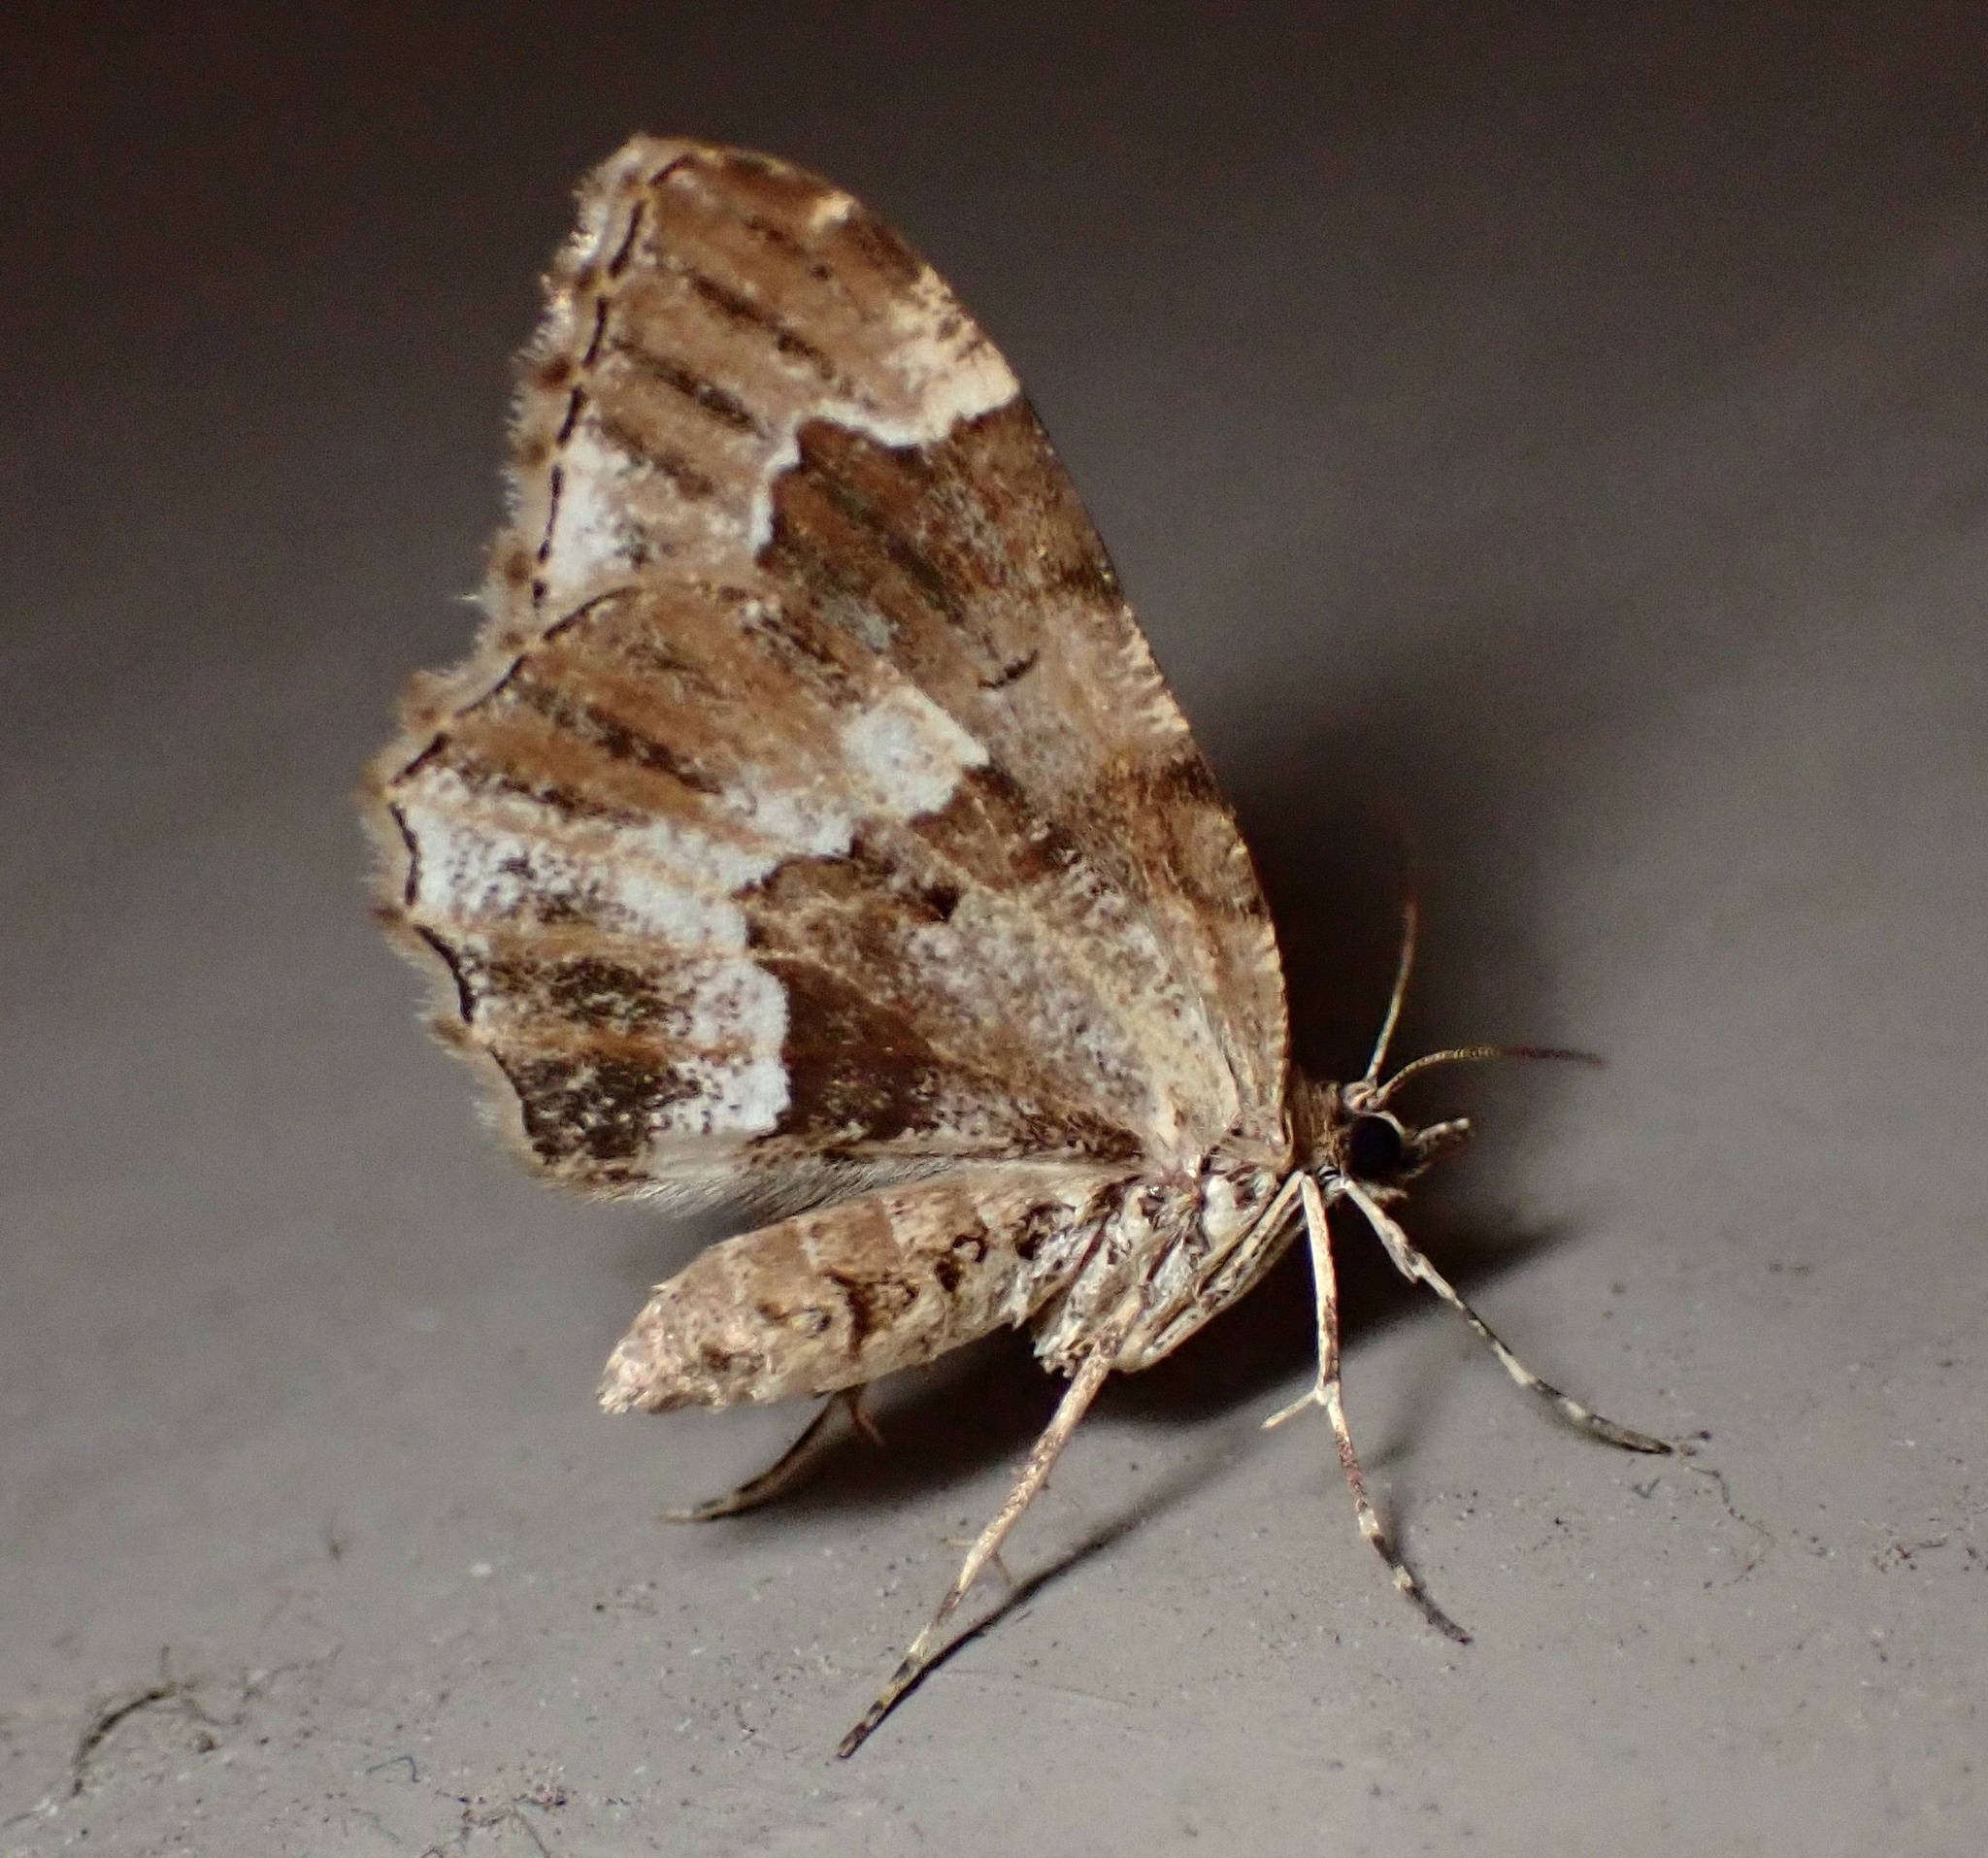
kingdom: Animalia
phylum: Arthropoda
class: Insecta
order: Lepidoptera
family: Geometridae
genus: Ceratodalia
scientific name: Ceratodalia gueneata
